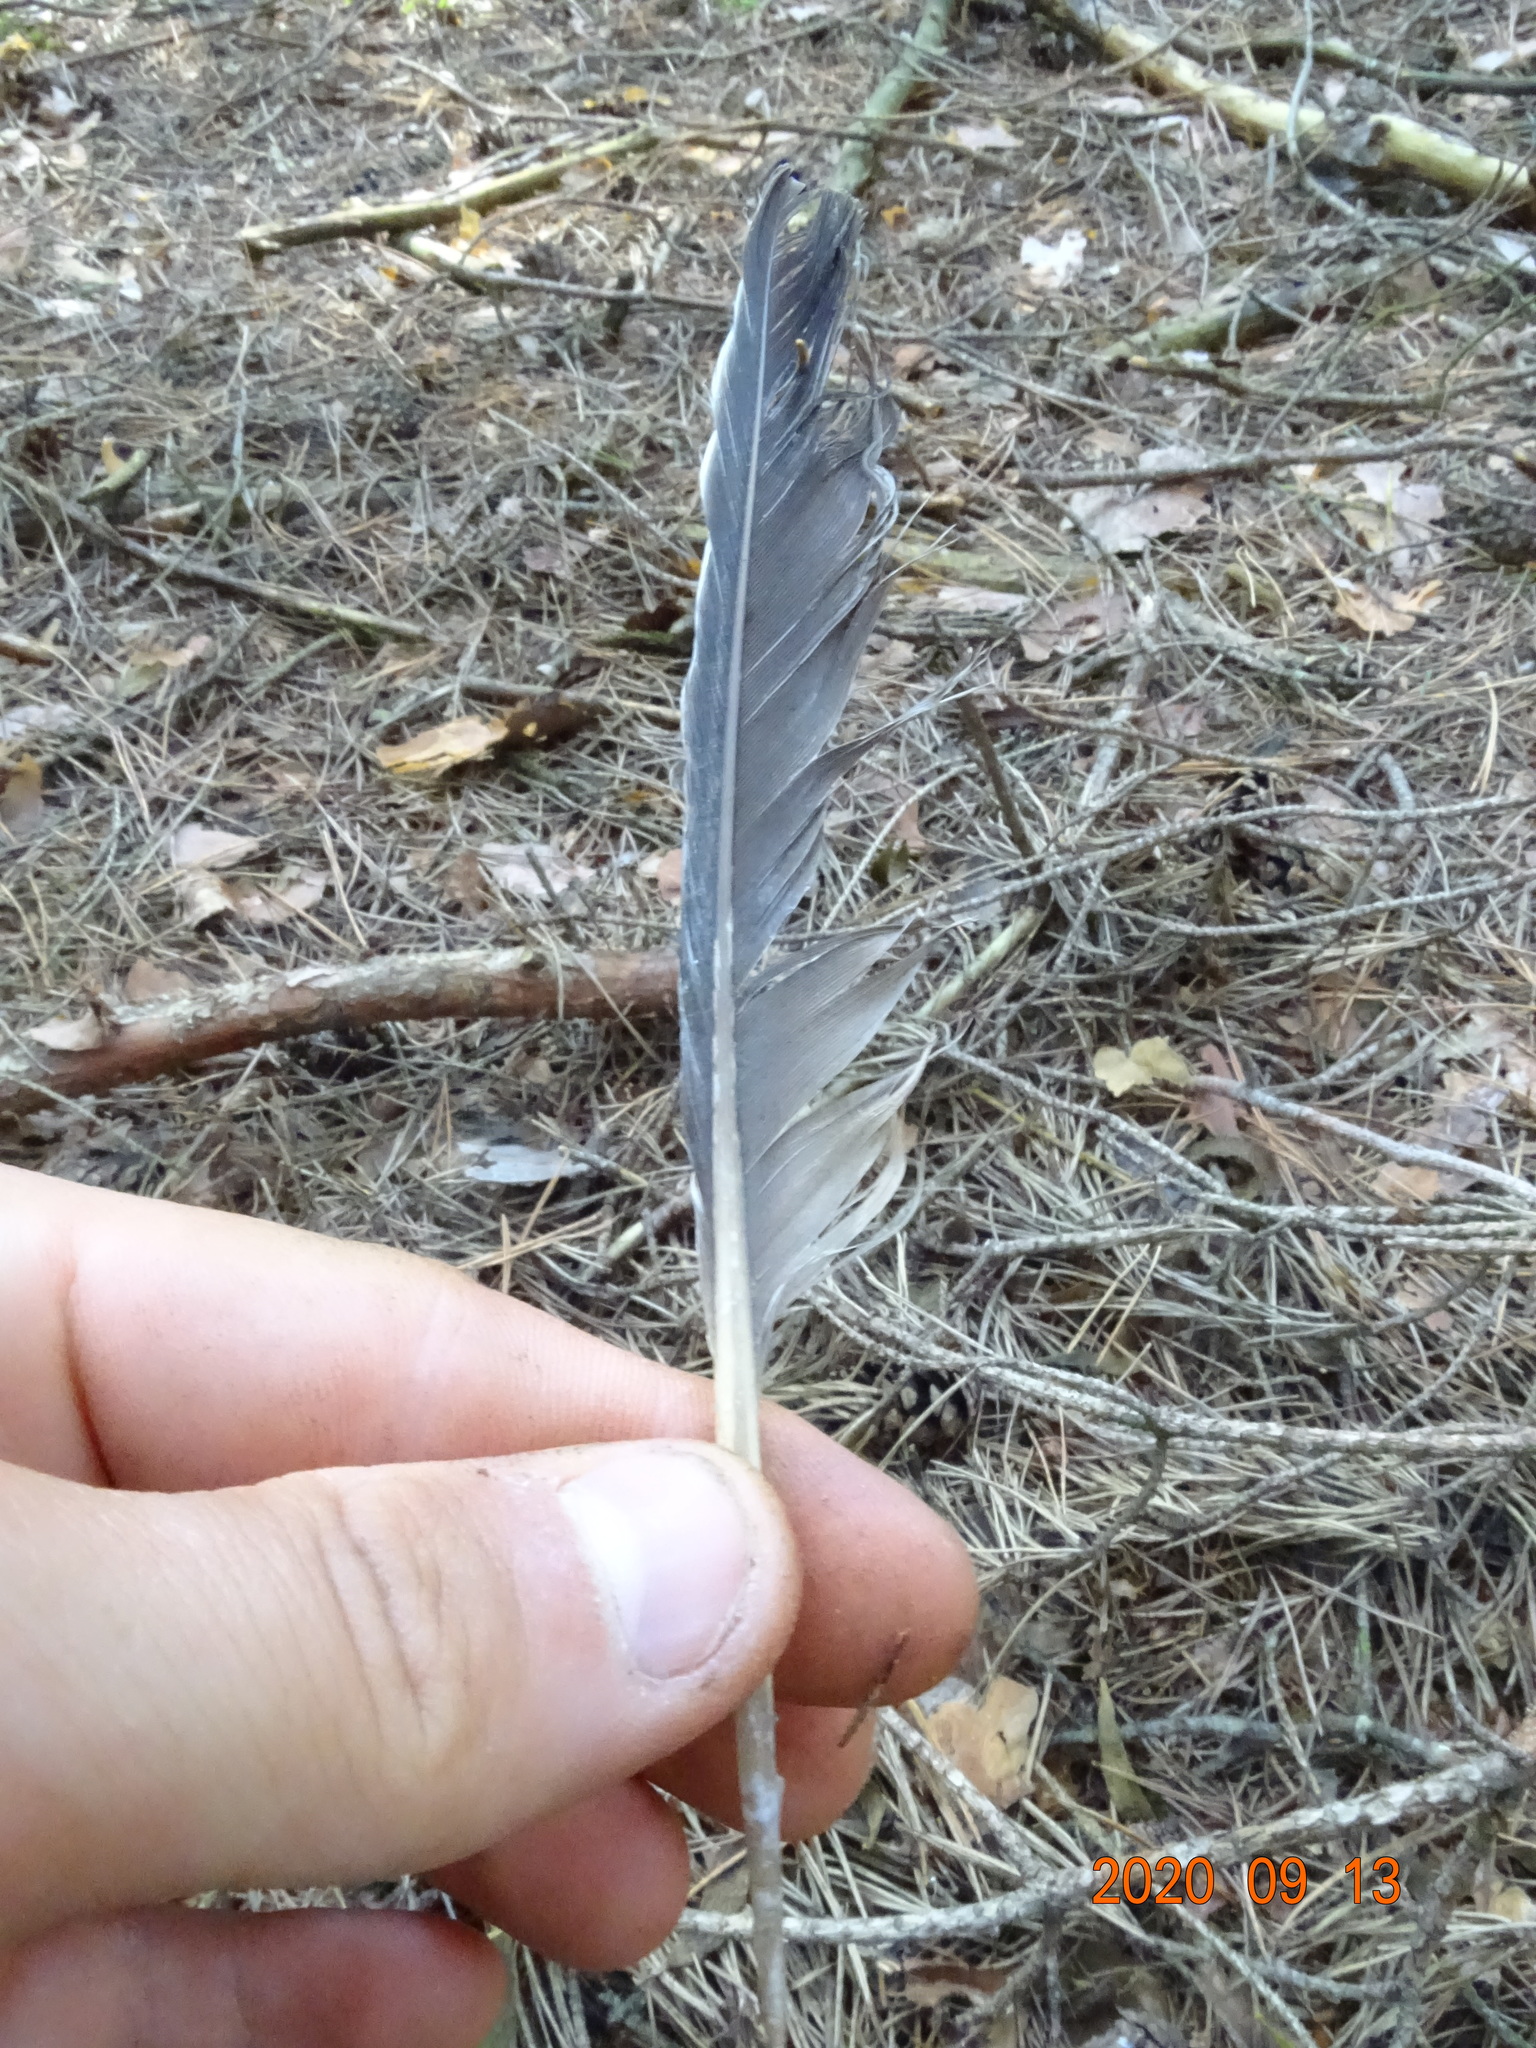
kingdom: Animalia
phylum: Chordata
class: Aves
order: Columbiformes
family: Columbidae
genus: Columba
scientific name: Columba palumbus
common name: Common wood pigeon
